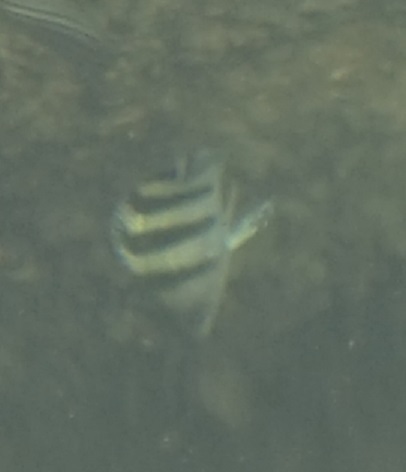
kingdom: Animalia
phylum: Chordata
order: Perciformes
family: Pomacentridae
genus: Abudefduf
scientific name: Abudefduf sexfasciatus
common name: Scissortail sergeant
